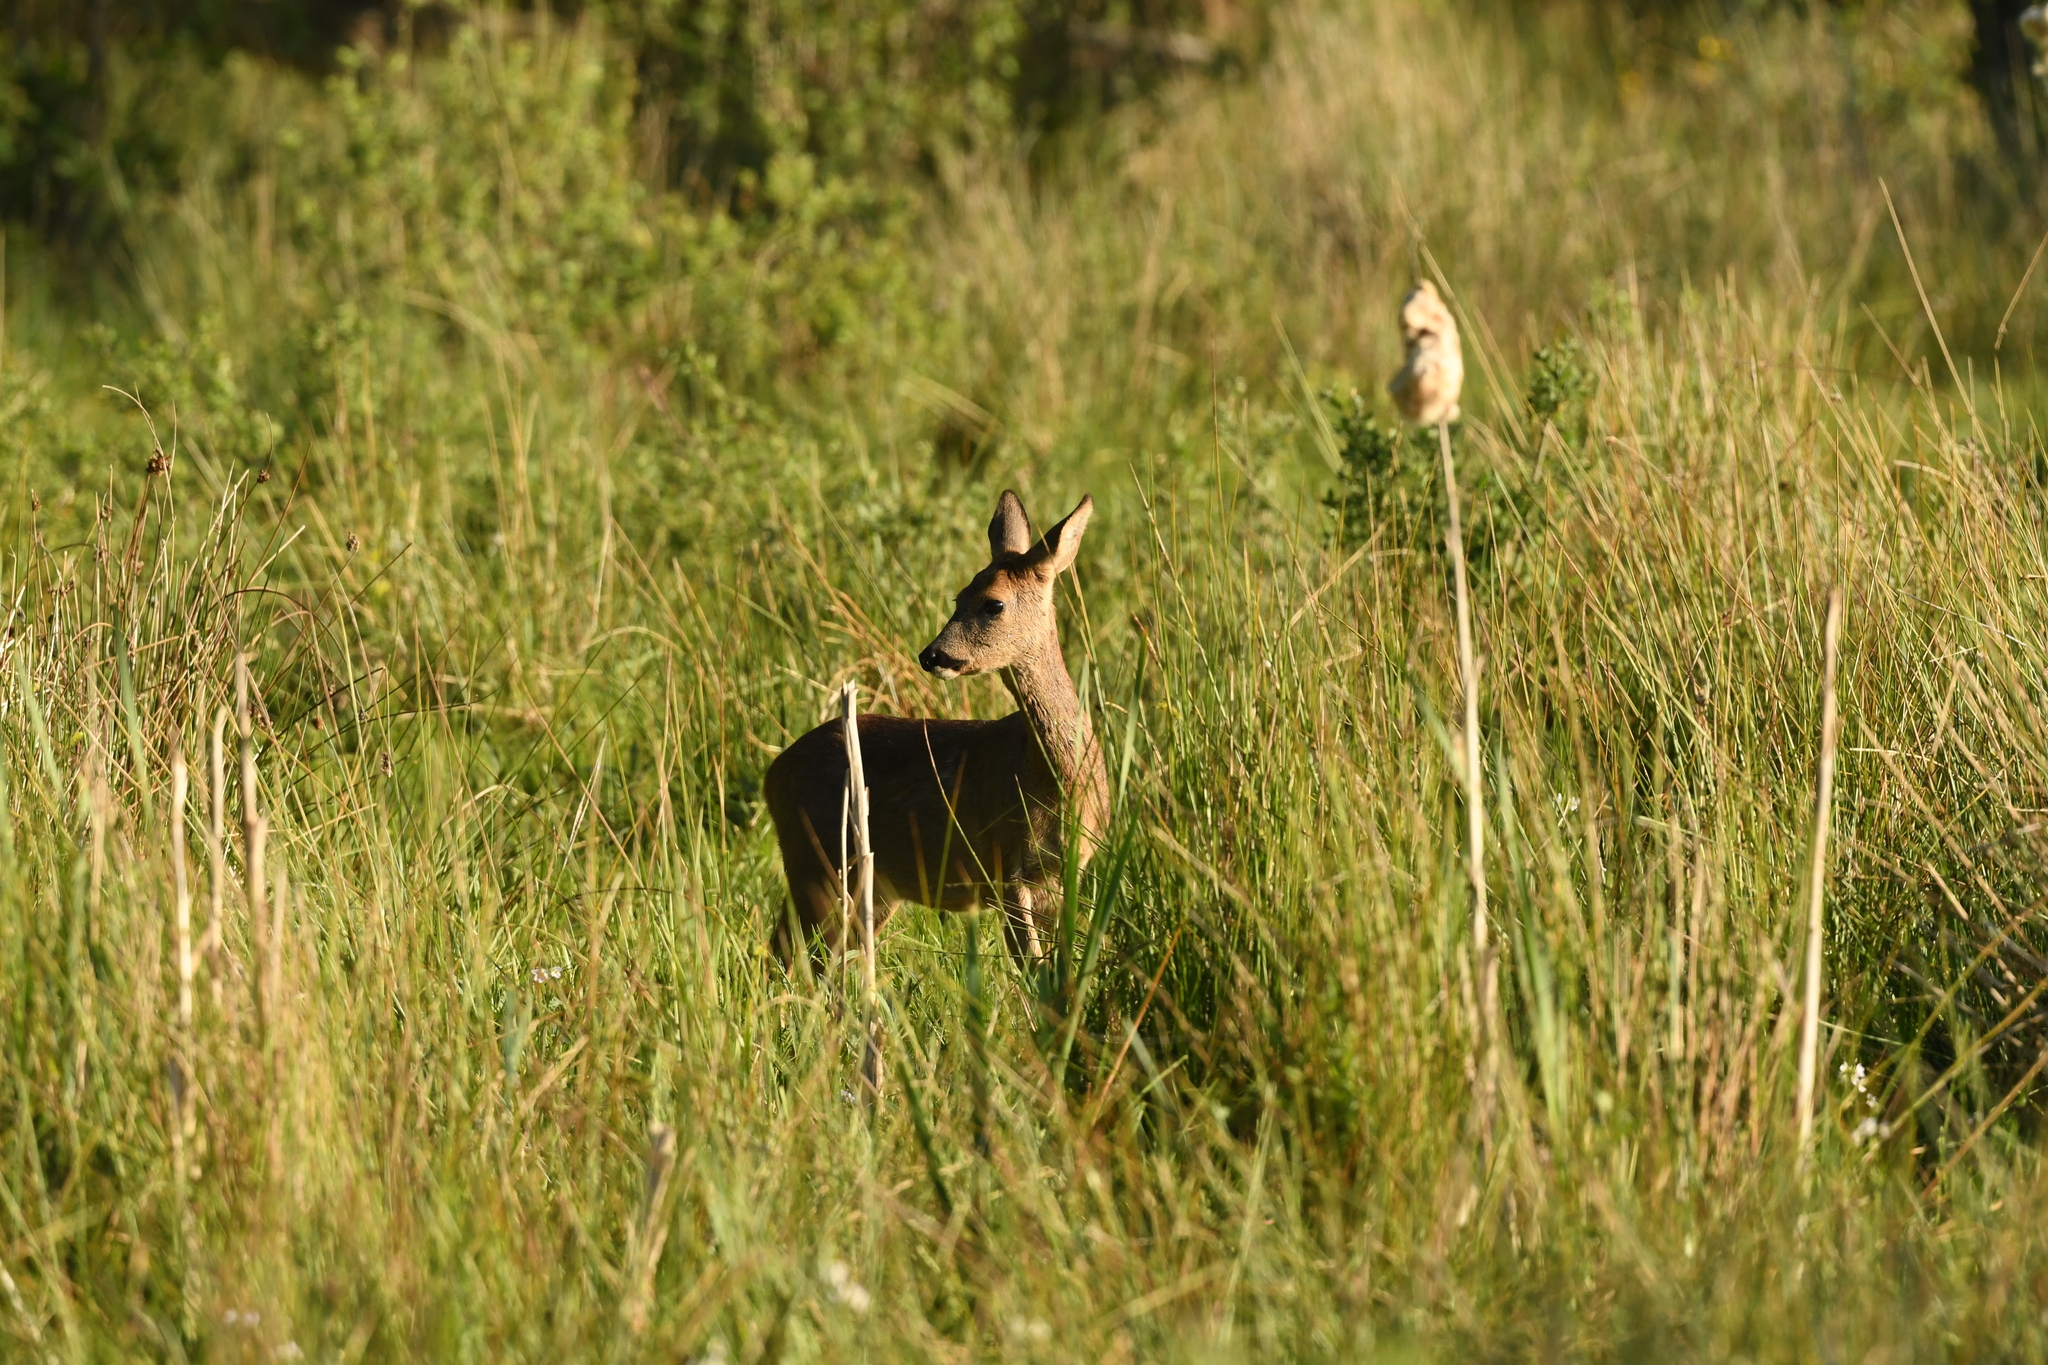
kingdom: Animalia
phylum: Chordata
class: Mammalia
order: Artiodactyla
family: Cervidae
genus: Capreolus
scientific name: Capreolus capreolus
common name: Western roe deer
